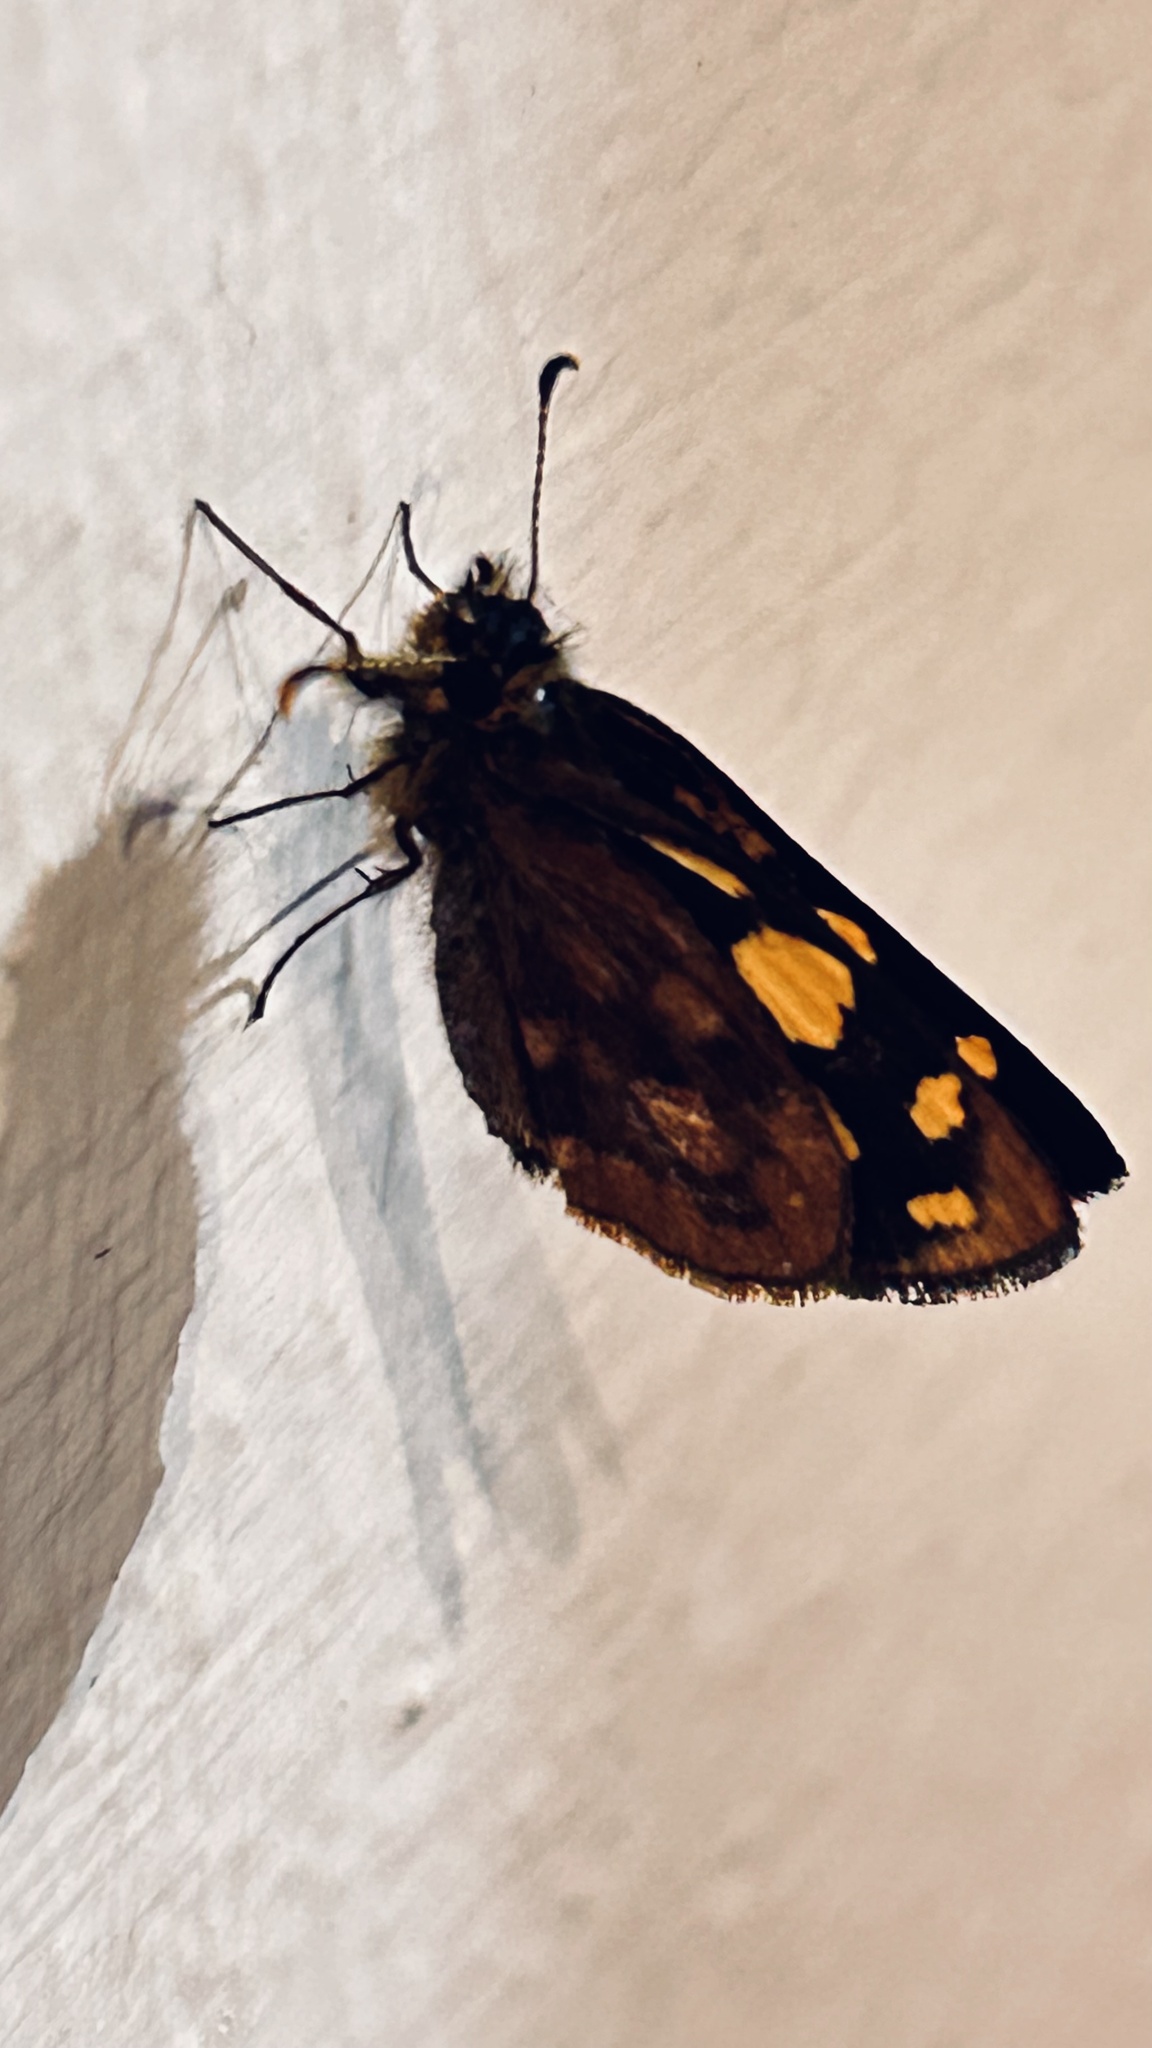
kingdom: Animalia
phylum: Arthropoda
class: Insecta
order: Lepidoptera
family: Hesperiidae
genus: Metisella
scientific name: Metisella metis
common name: Western gold-spotted sylph
